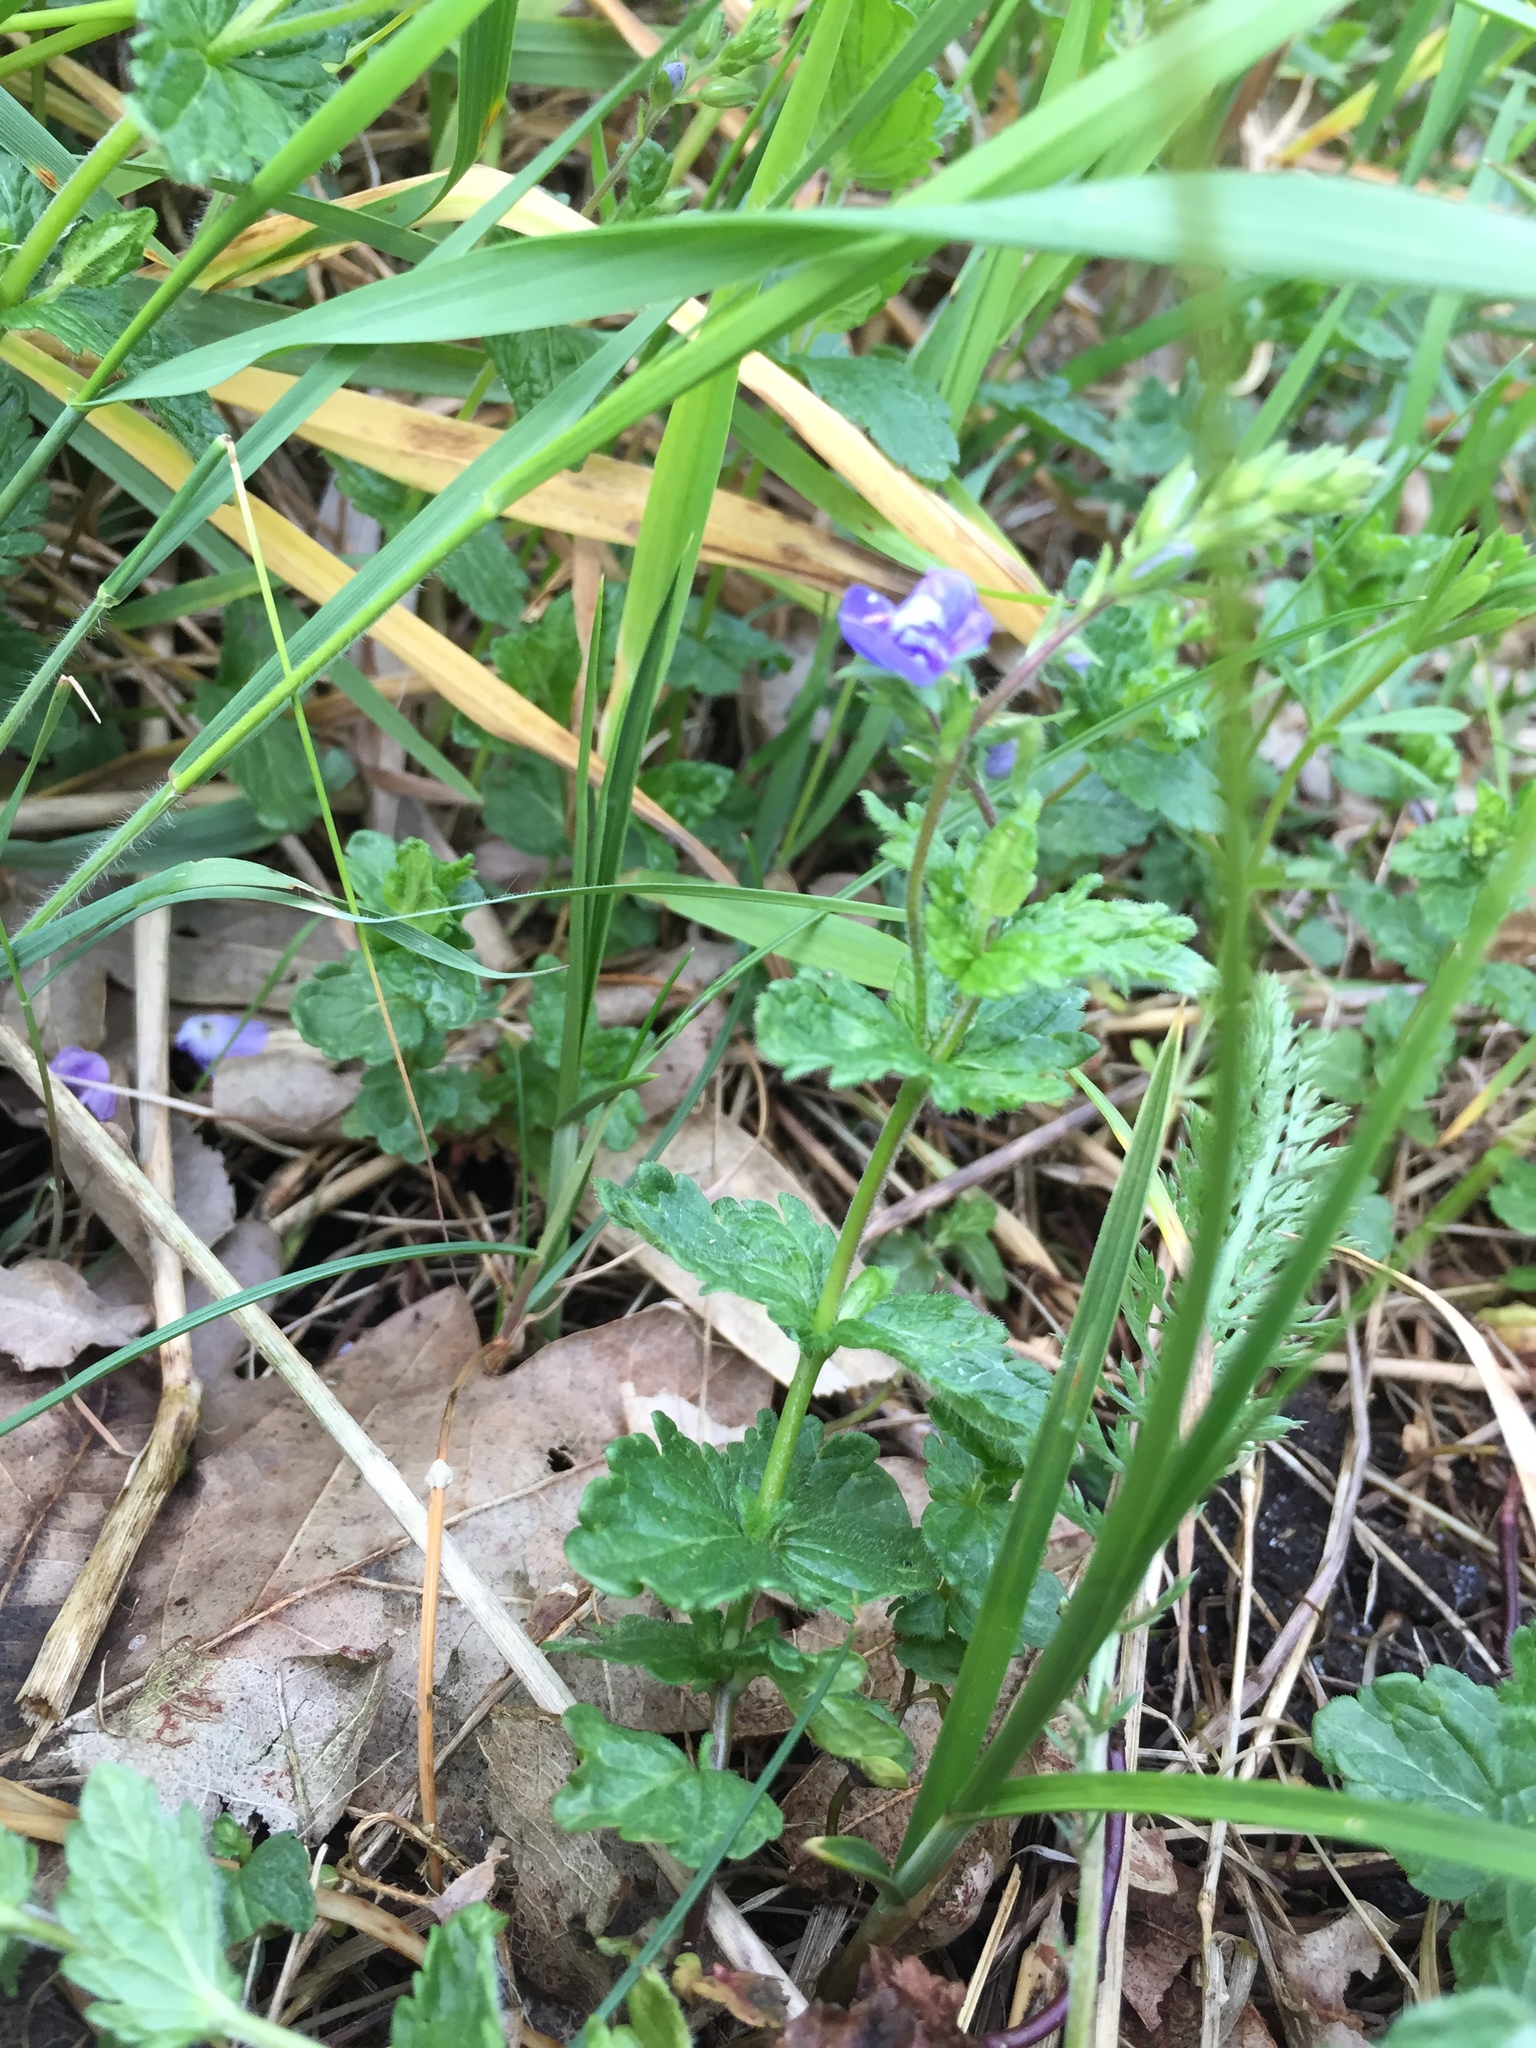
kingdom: Plantae
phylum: Tracheophyta
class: Magnoliopsida
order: Lamiales
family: Plantaginaceae
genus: Veronica
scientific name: Veronica chamaedrys
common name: Germander speedwell
